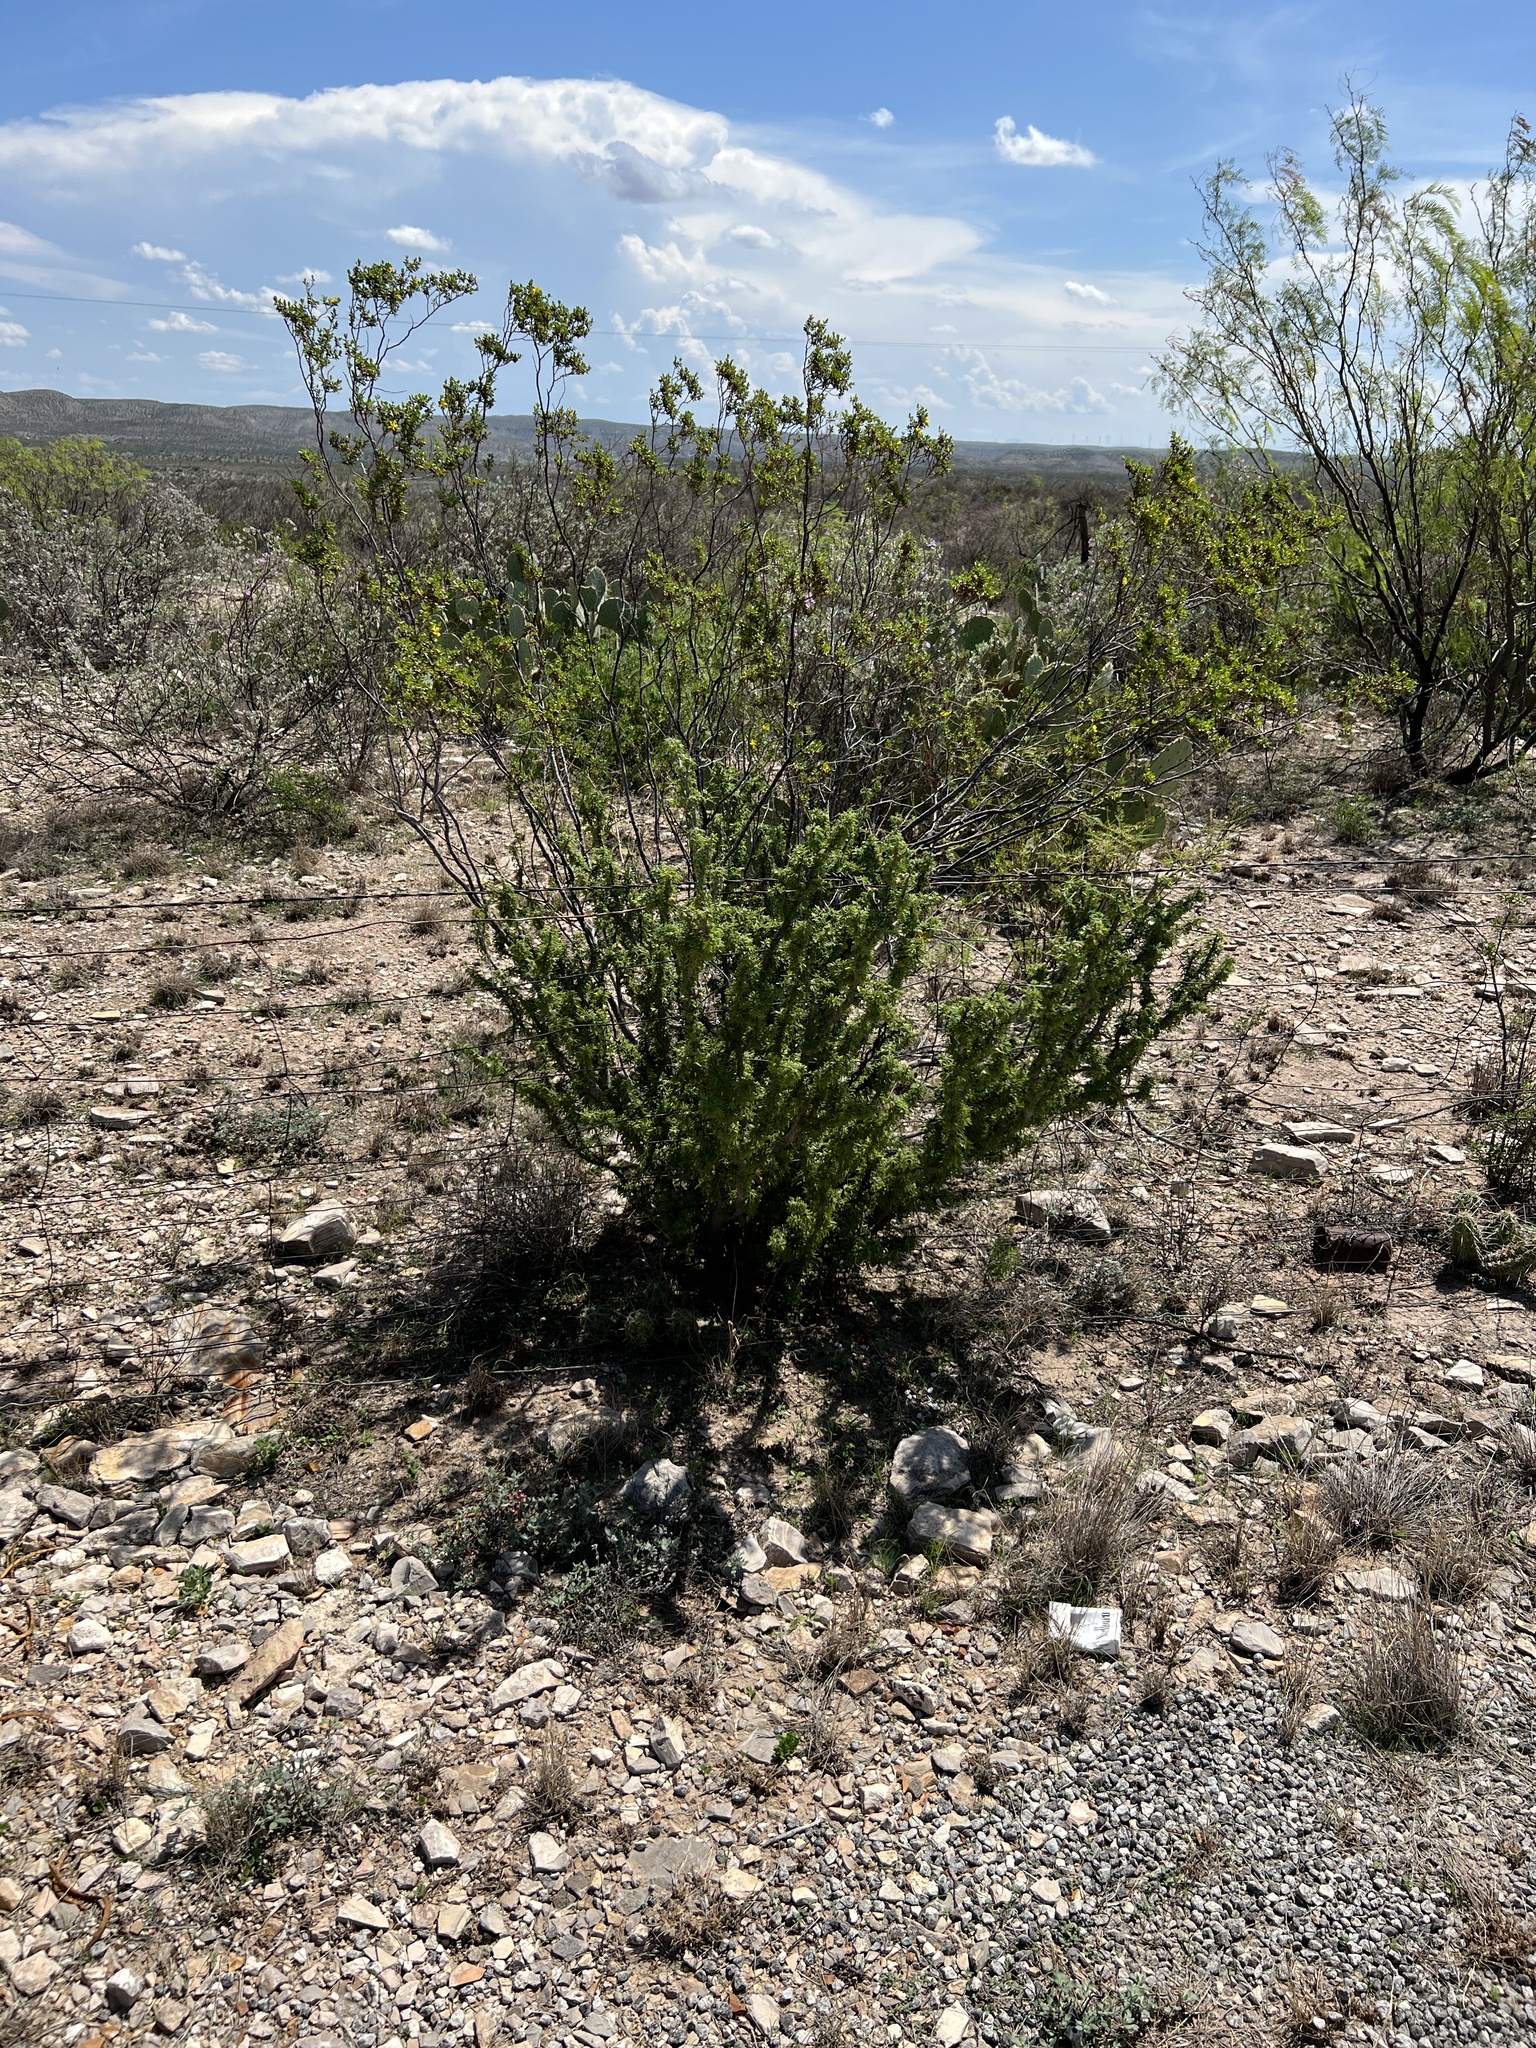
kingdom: Plantae
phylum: Tracheophyta
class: Magnoliopsida
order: Zygophyllales
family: Zygophyllaceae
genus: Porlieria
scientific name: Porlieria angustifolia
